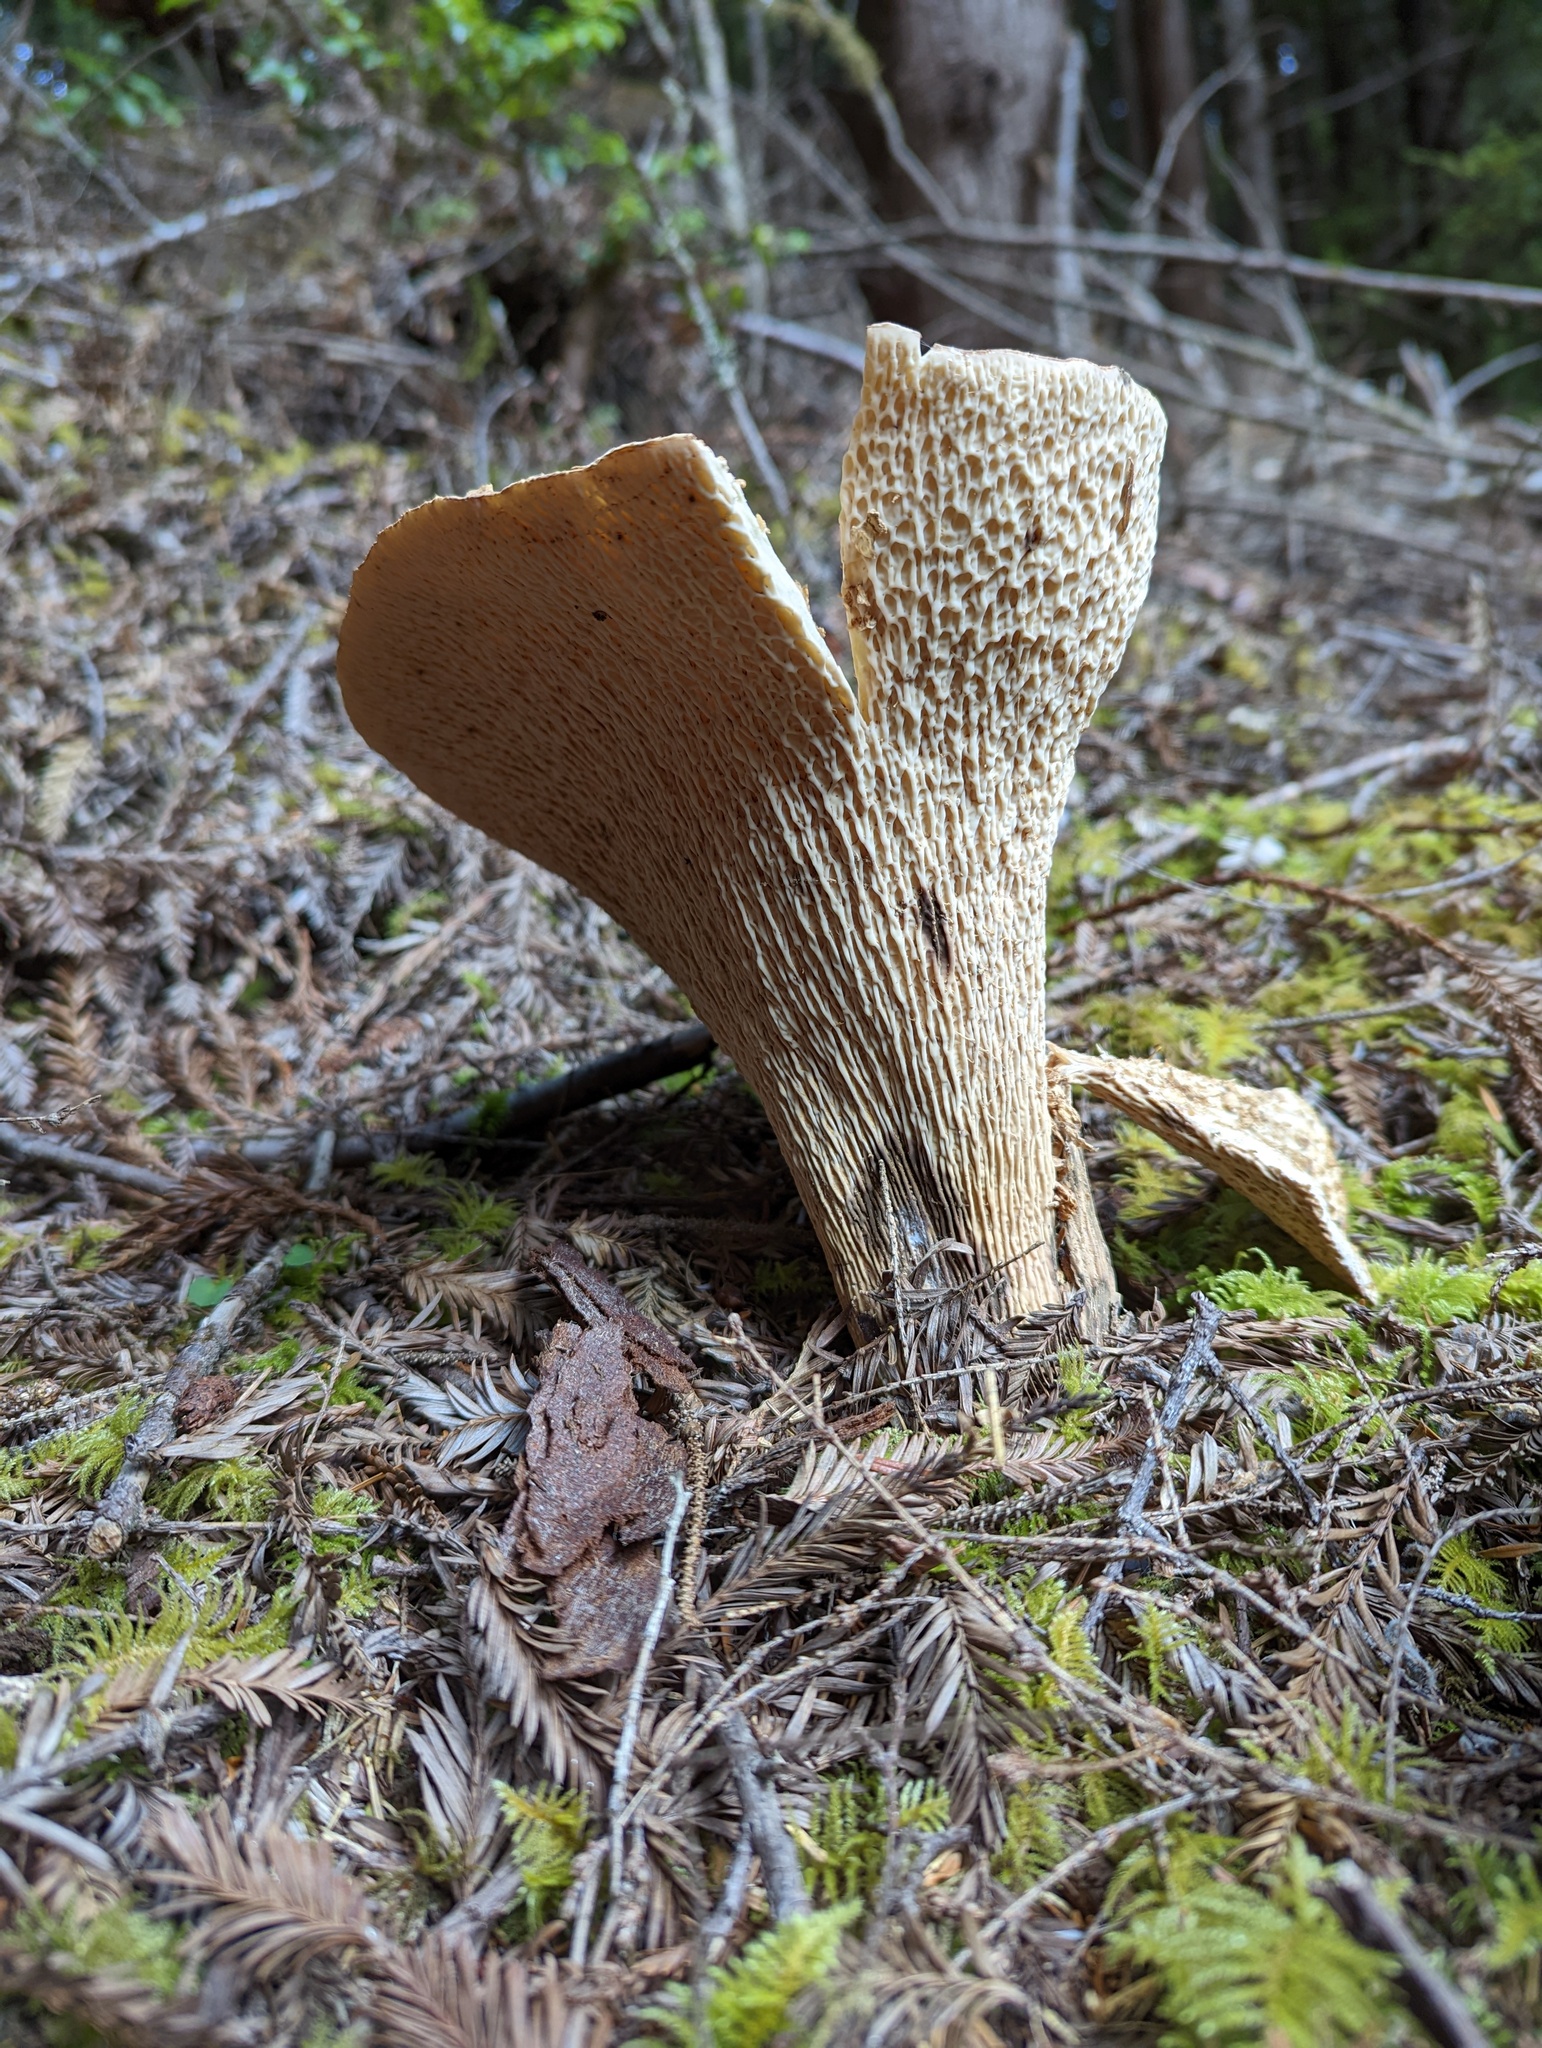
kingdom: Fungi
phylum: Basidiomycota
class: Agaricomycetes
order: Gomphales
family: Gomphaceae
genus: Turbinellus
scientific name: Turbinellus kauffmanii
